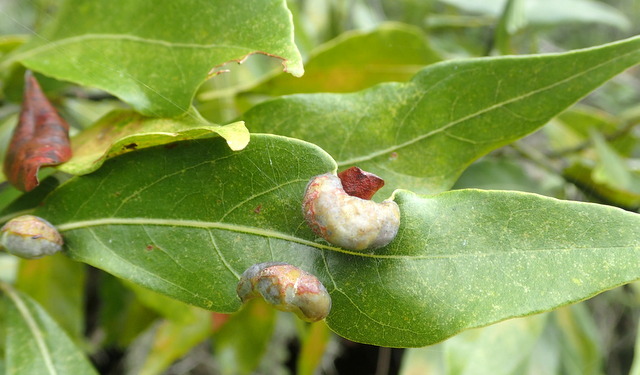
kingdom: Animalia
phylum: Arthropoda
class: Insecta
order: Hemiptera
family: Triozidae
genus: Trioza
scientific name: Trioza magnoliae
